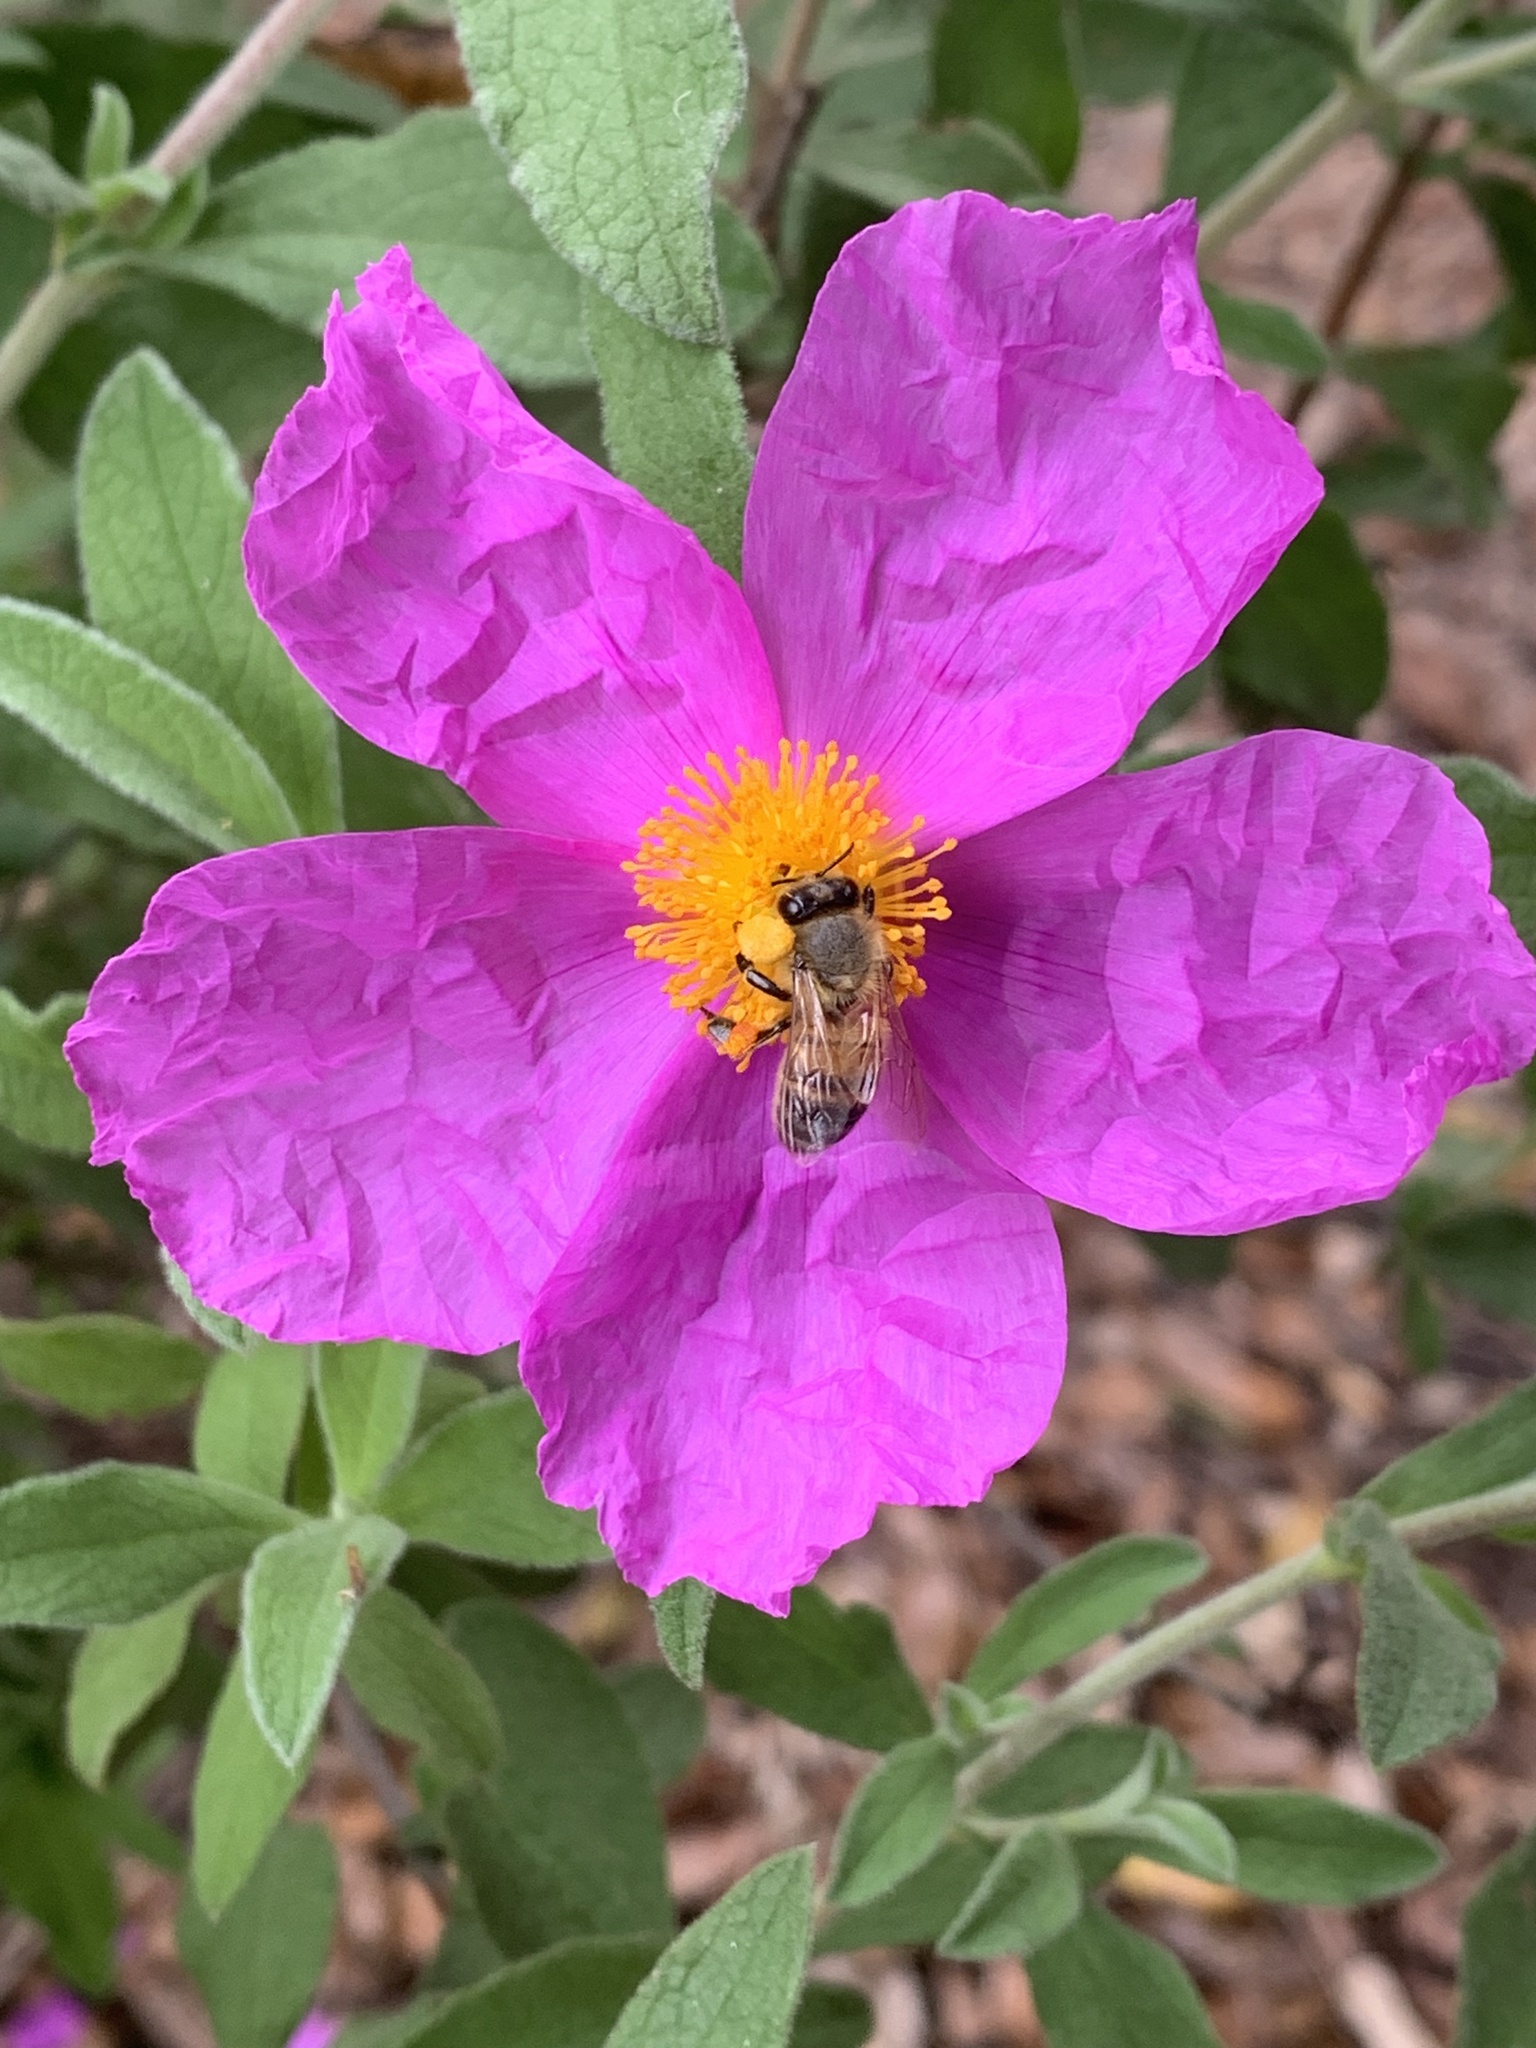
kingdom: Plantae
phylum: Tracheophyta
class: Magnoliopsida
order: Malvales
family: Cistaceae
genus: Cistus
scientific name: Cistus creticus
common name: Cretan rockrose
